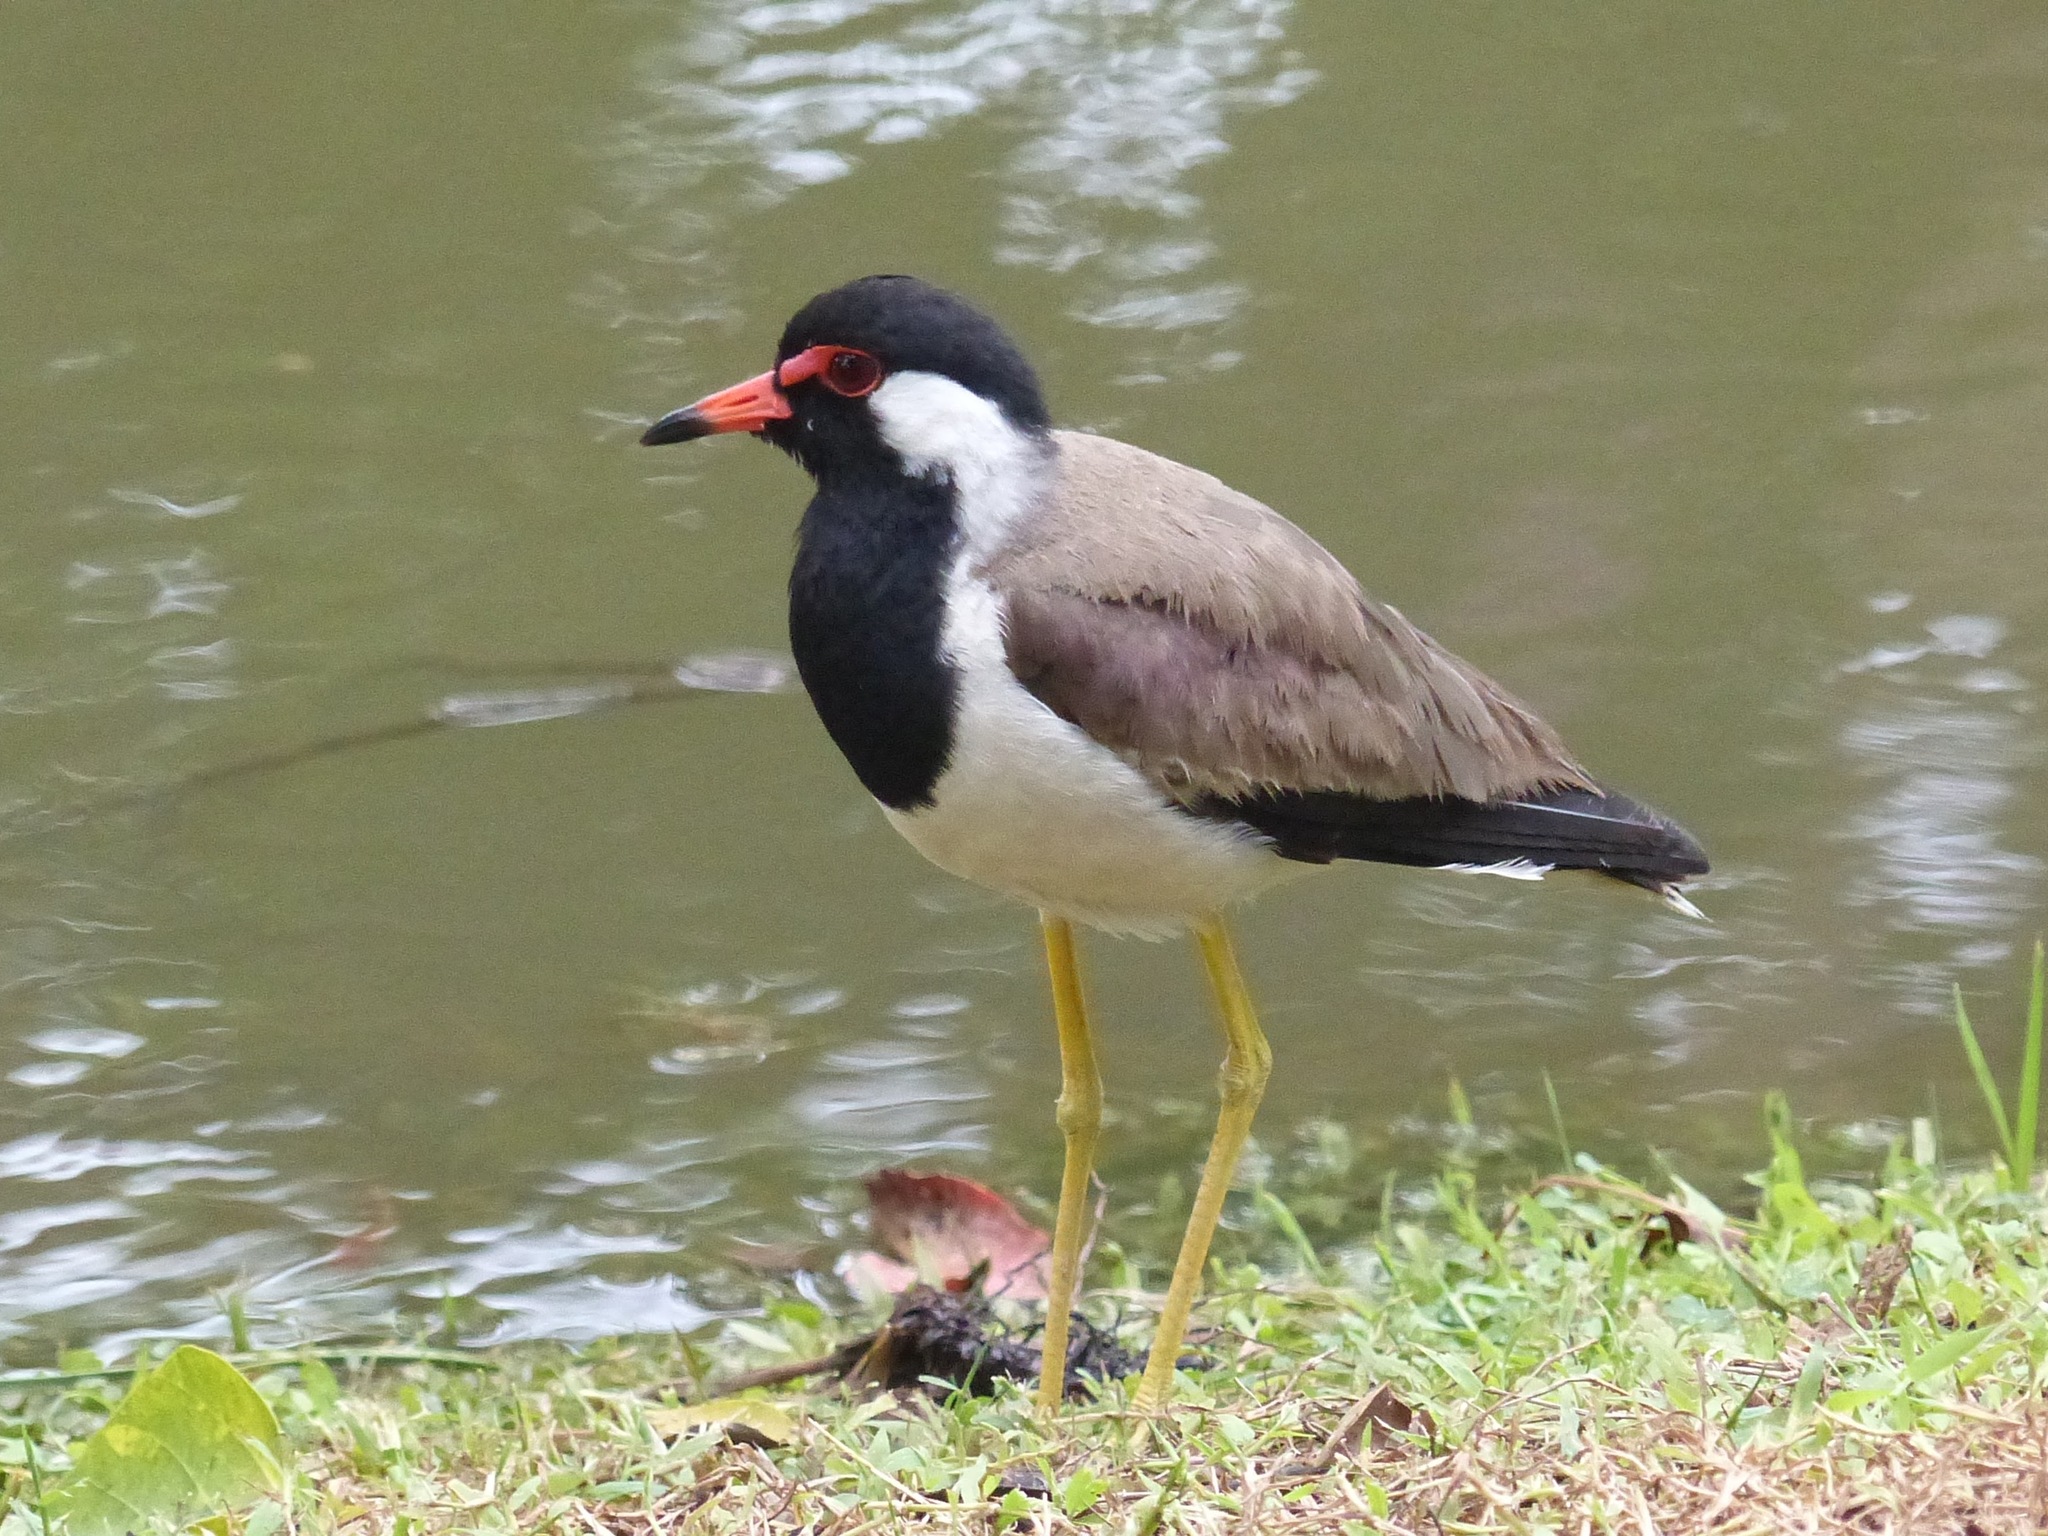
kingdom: Animalia
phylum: Chordata
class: Aves
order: Charadriiformes
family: Charadriidae
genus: Vanellus
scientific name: Vanellus indicus
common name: Red-wattled lapwing
